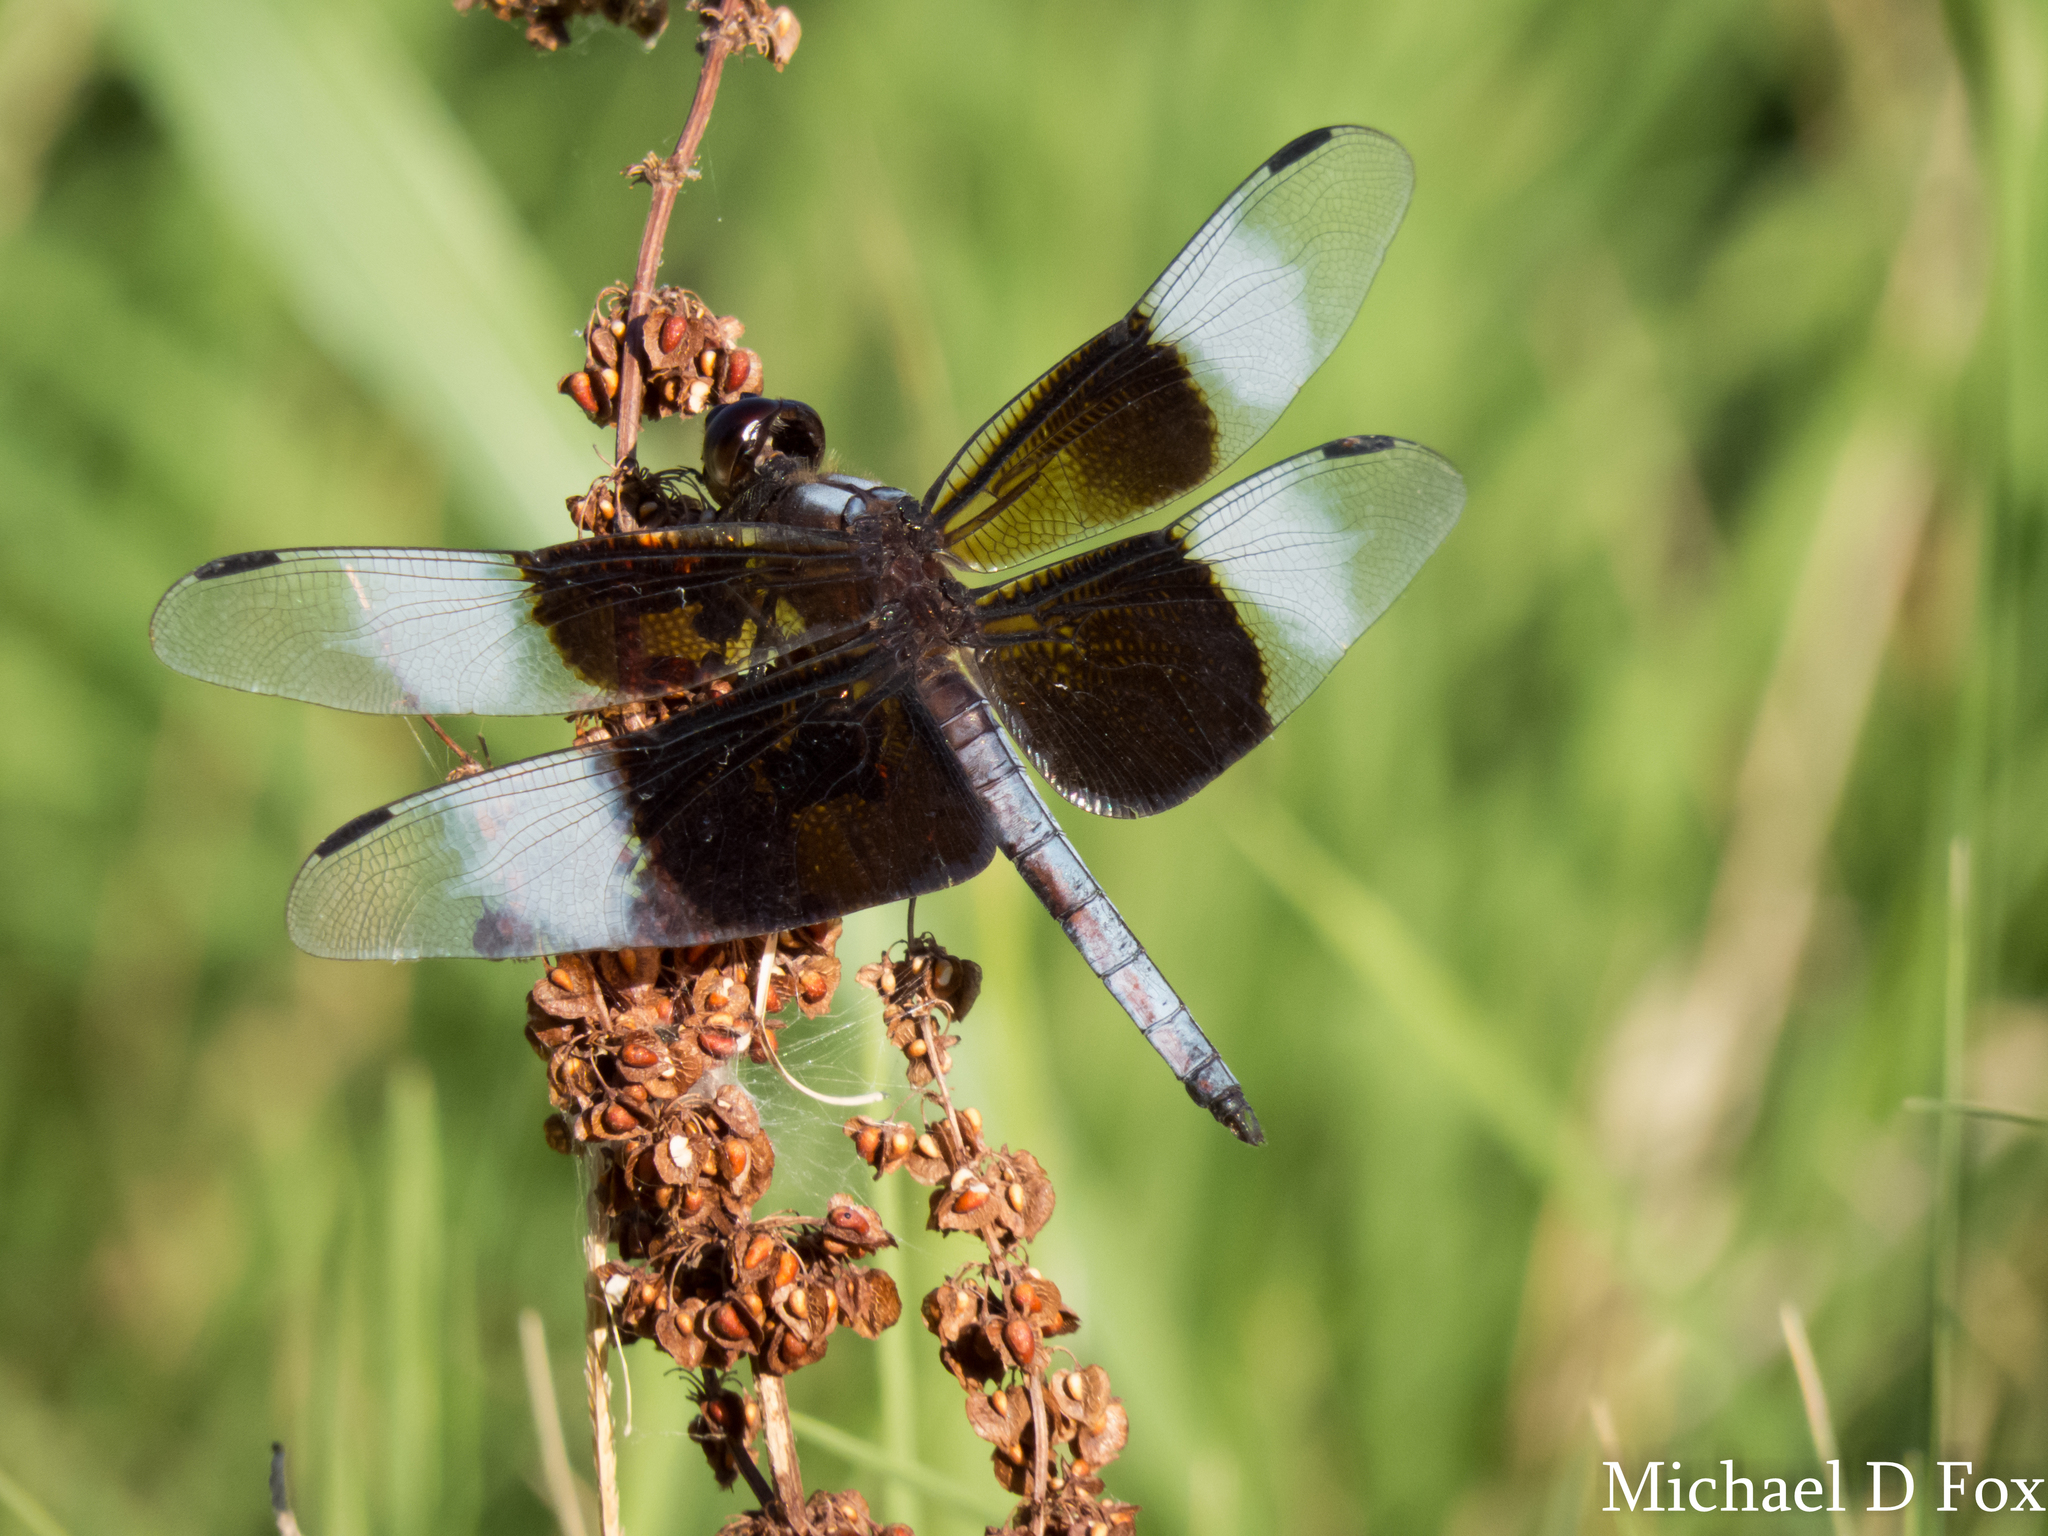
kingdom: Animalia
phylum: Arthropoda
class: Insecta
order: Odonata
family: Libellulidae
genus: Libellula
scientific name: Libellula luctuosa
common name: Widow skimmer
